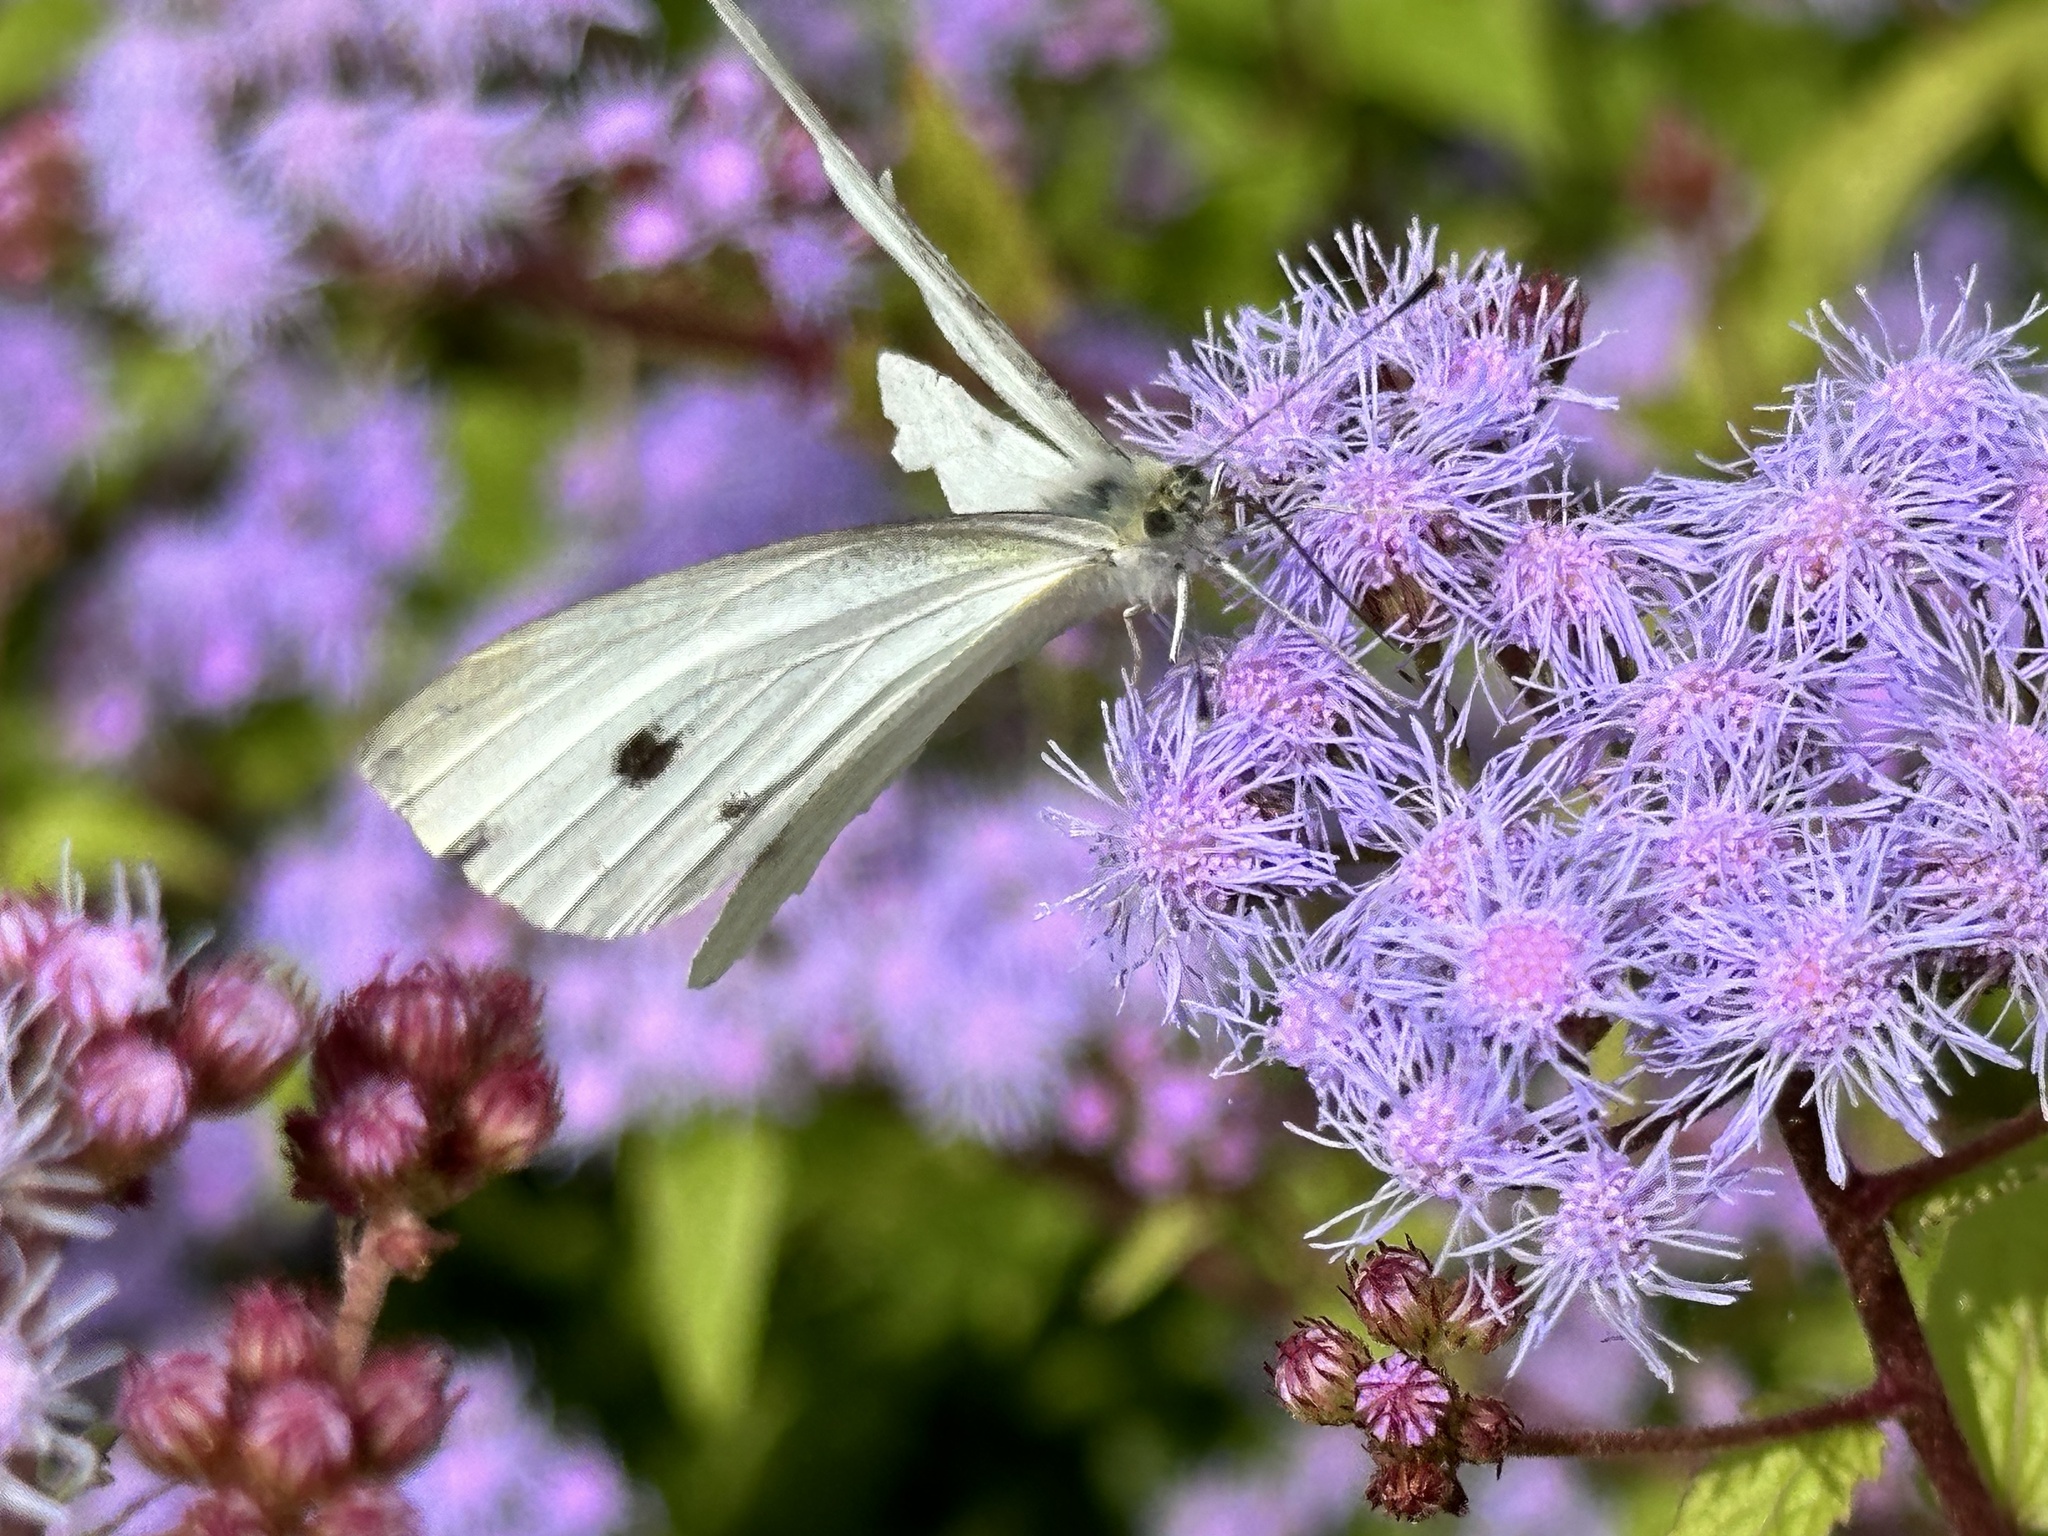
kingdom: Animalia
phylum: Arthropoda
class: Insecta
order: Lepidoptera
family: Pieridae
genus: Pieris
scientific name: Pieris rapae
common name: Small white
